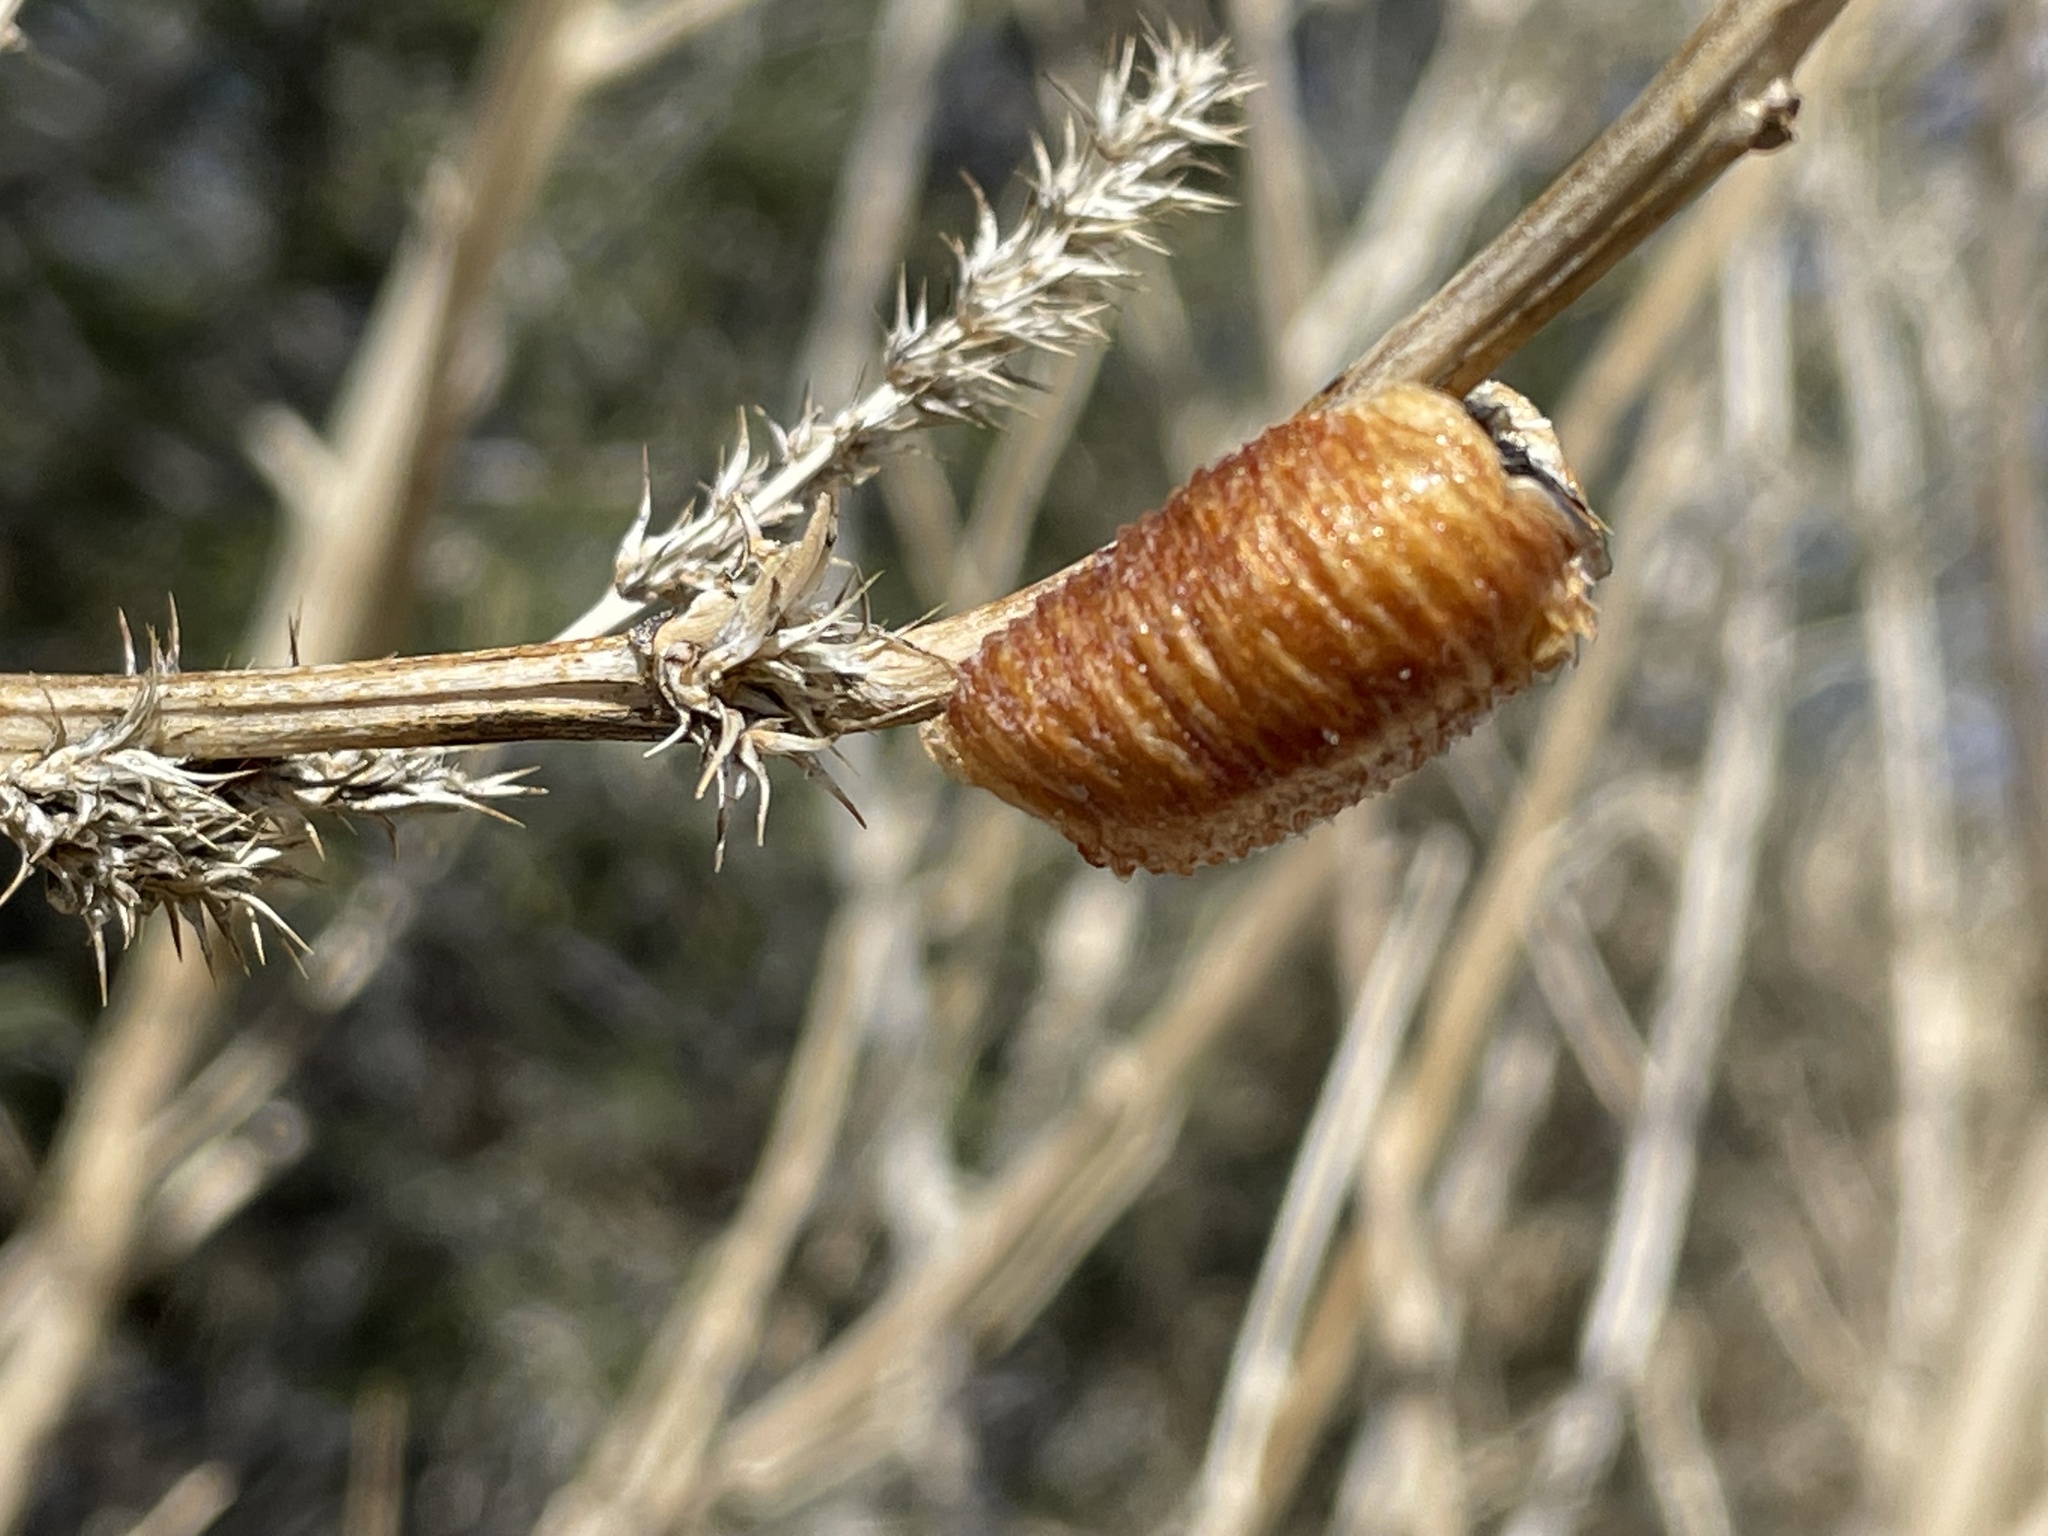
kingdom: Animalia
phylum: Arthropoda
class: Insecta
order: Mantodea
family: Mantidae
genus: Stagmomantis
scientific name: Stagmomantis californica
